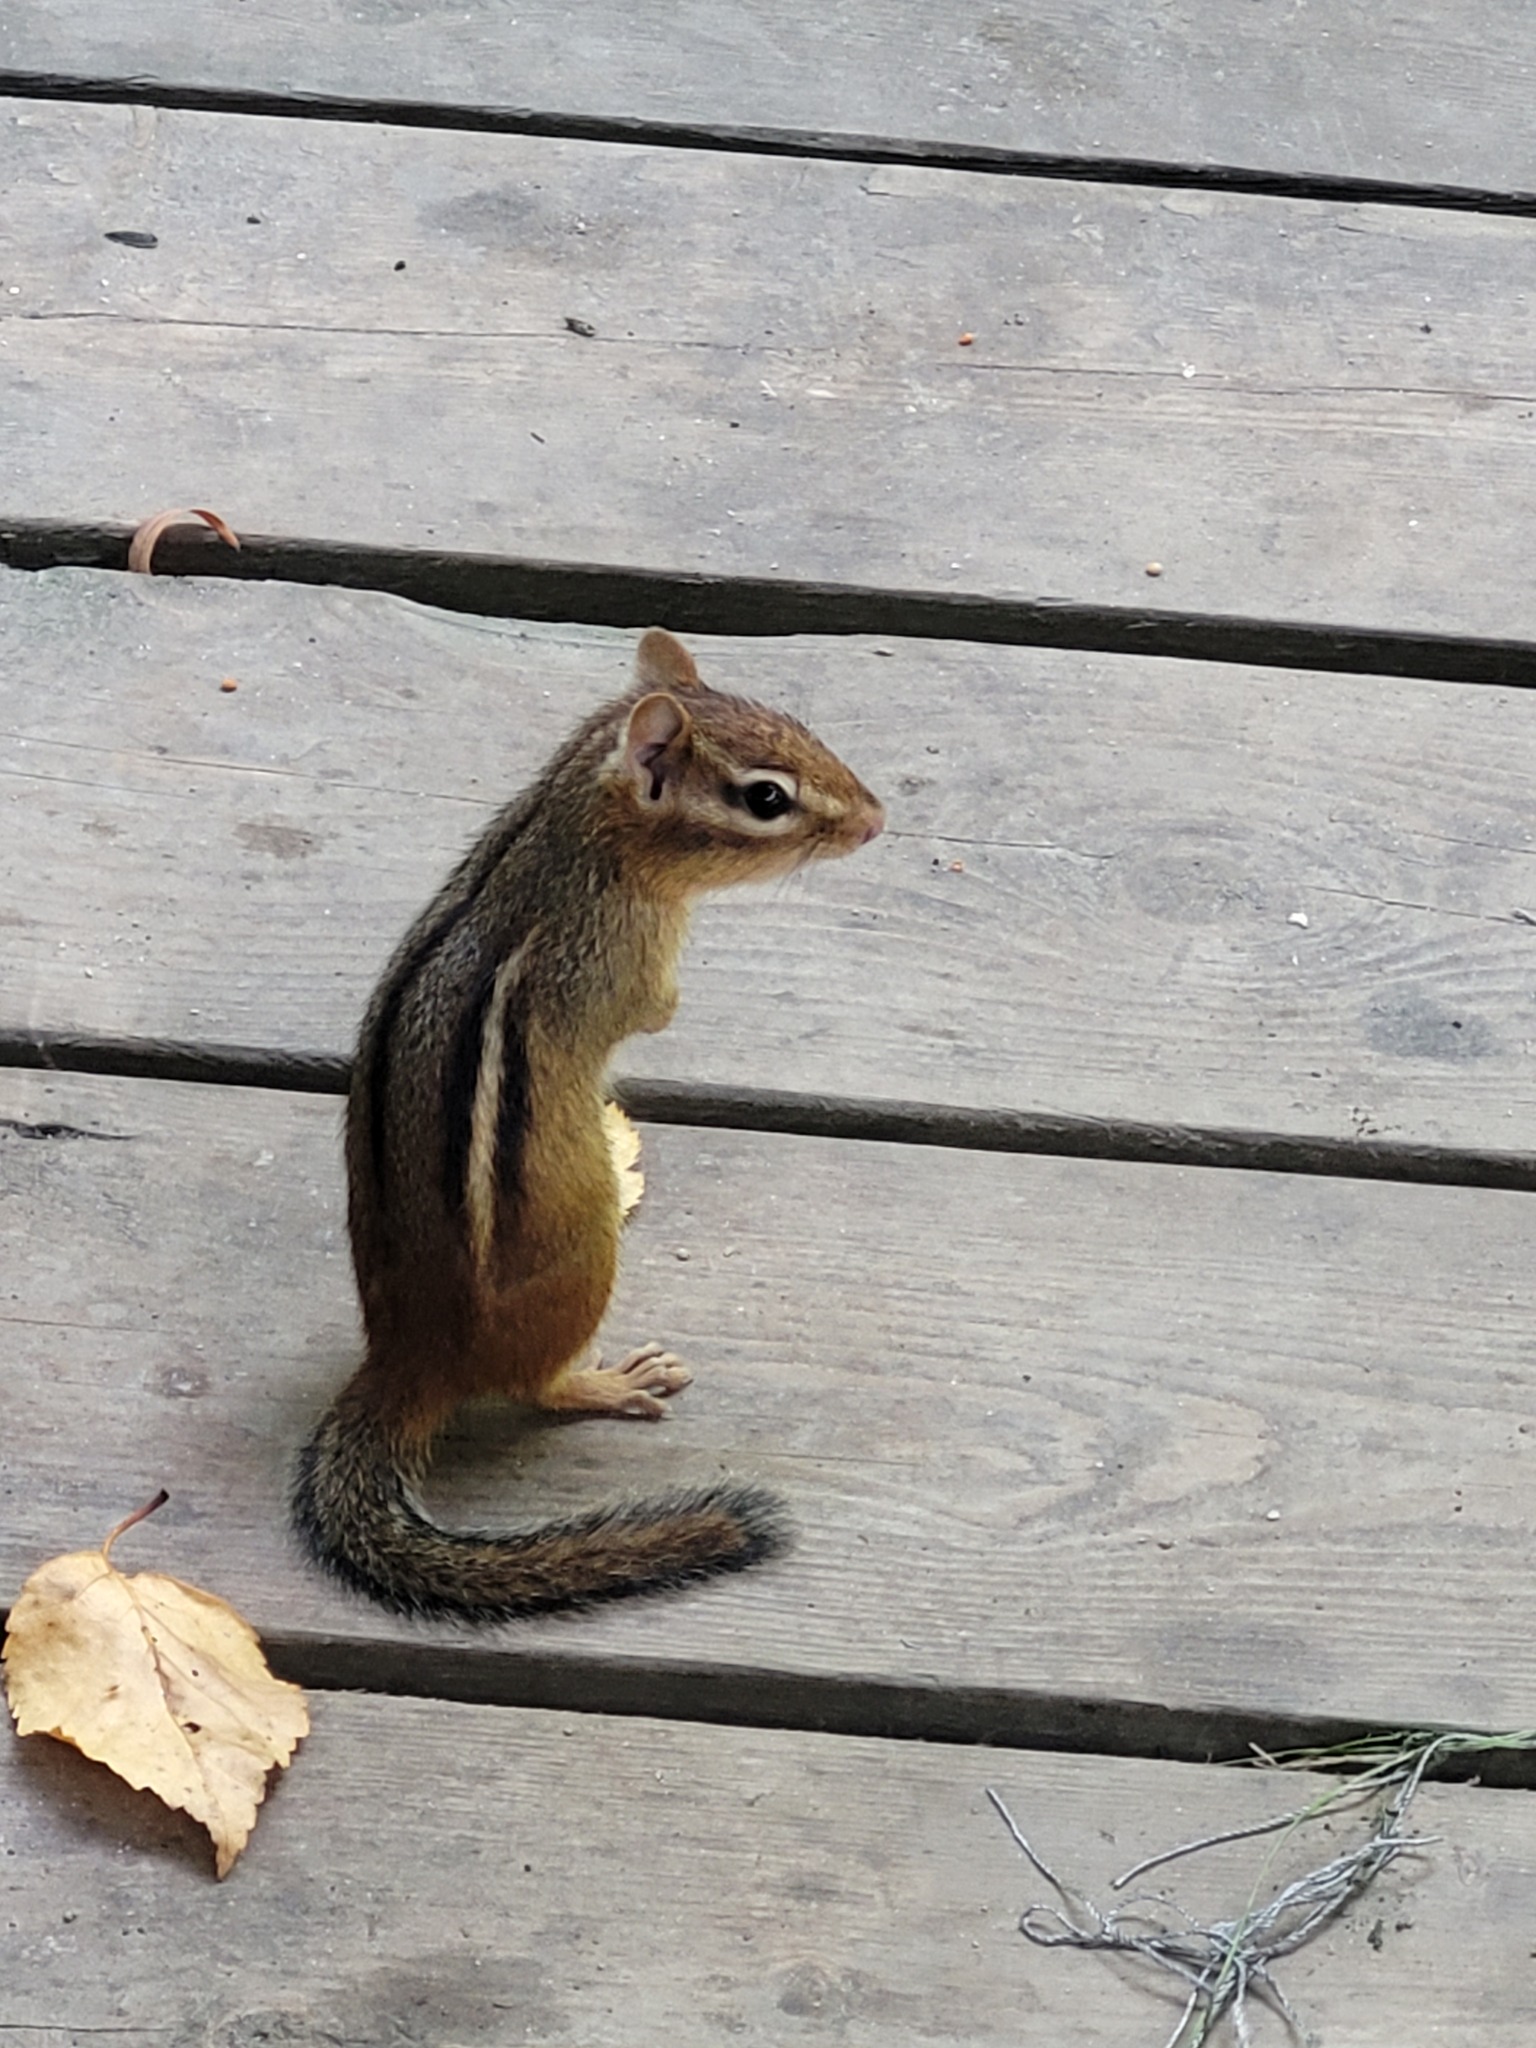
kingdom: Animalia
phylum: Chordata
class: Mammalia
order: Rodentia
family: Sciuridae
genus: Tamias
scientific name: Tamias striatus
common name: Eastern chipmunk
